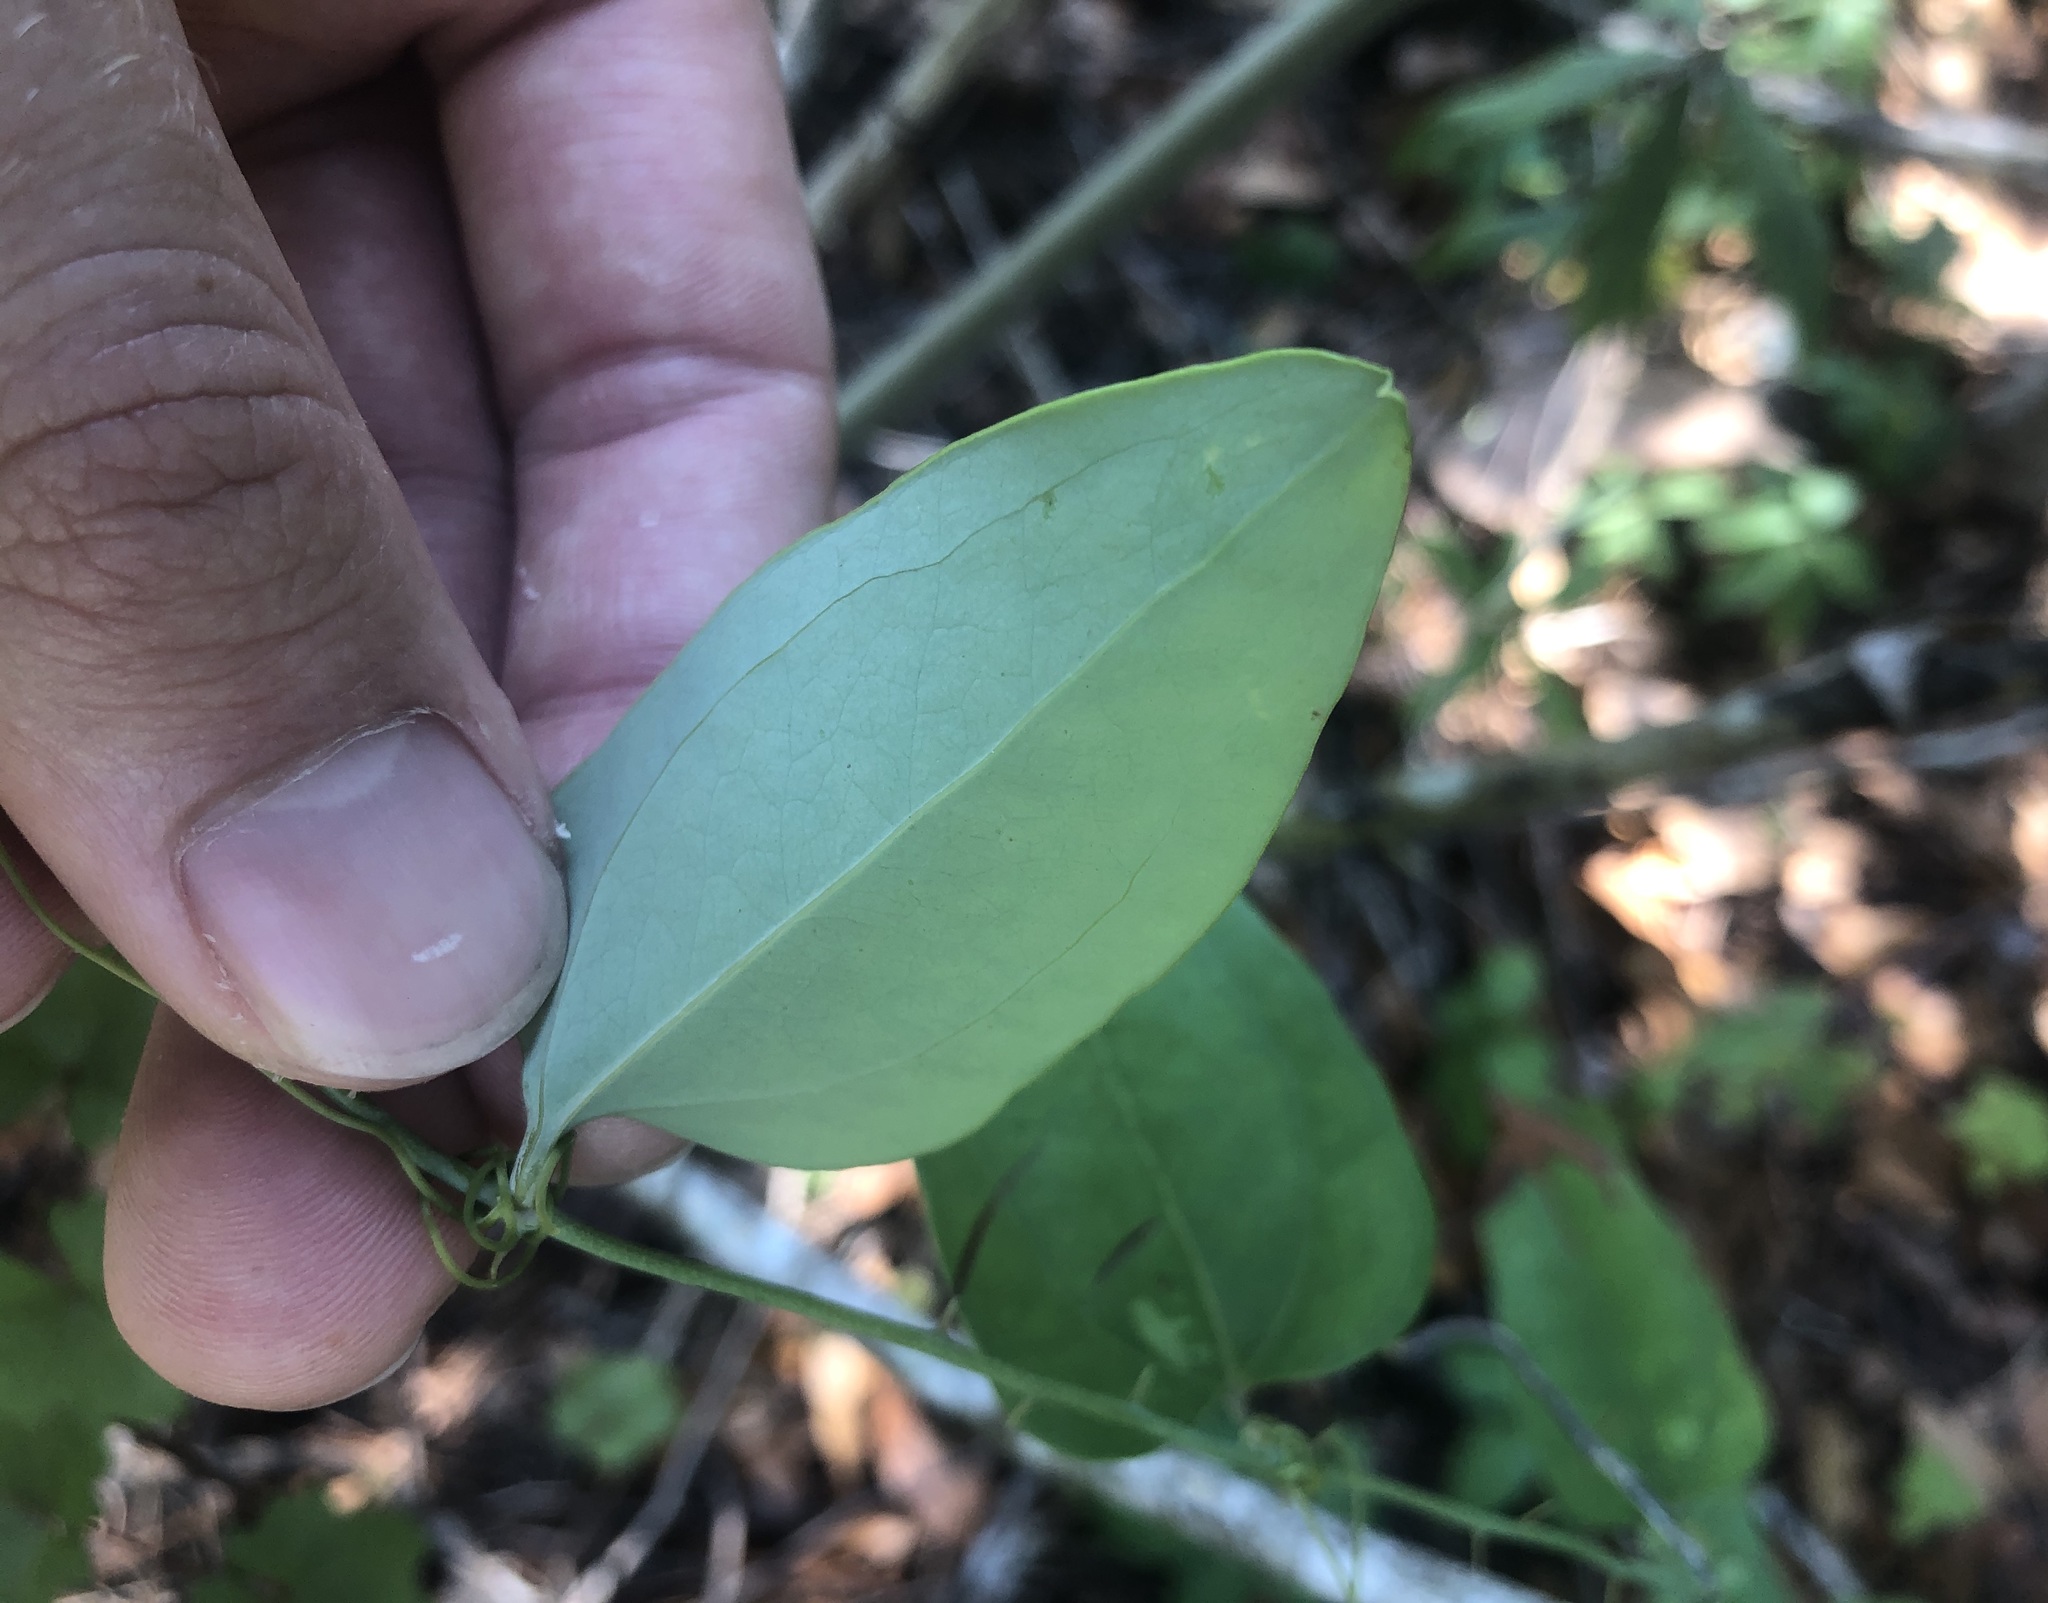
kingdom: Plantae
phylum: Tracheophyta
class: Liliopsida
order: Liliales
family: Smilacaceae
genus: Smilax
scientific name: Smilax glauca
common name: Cat greenbrier
